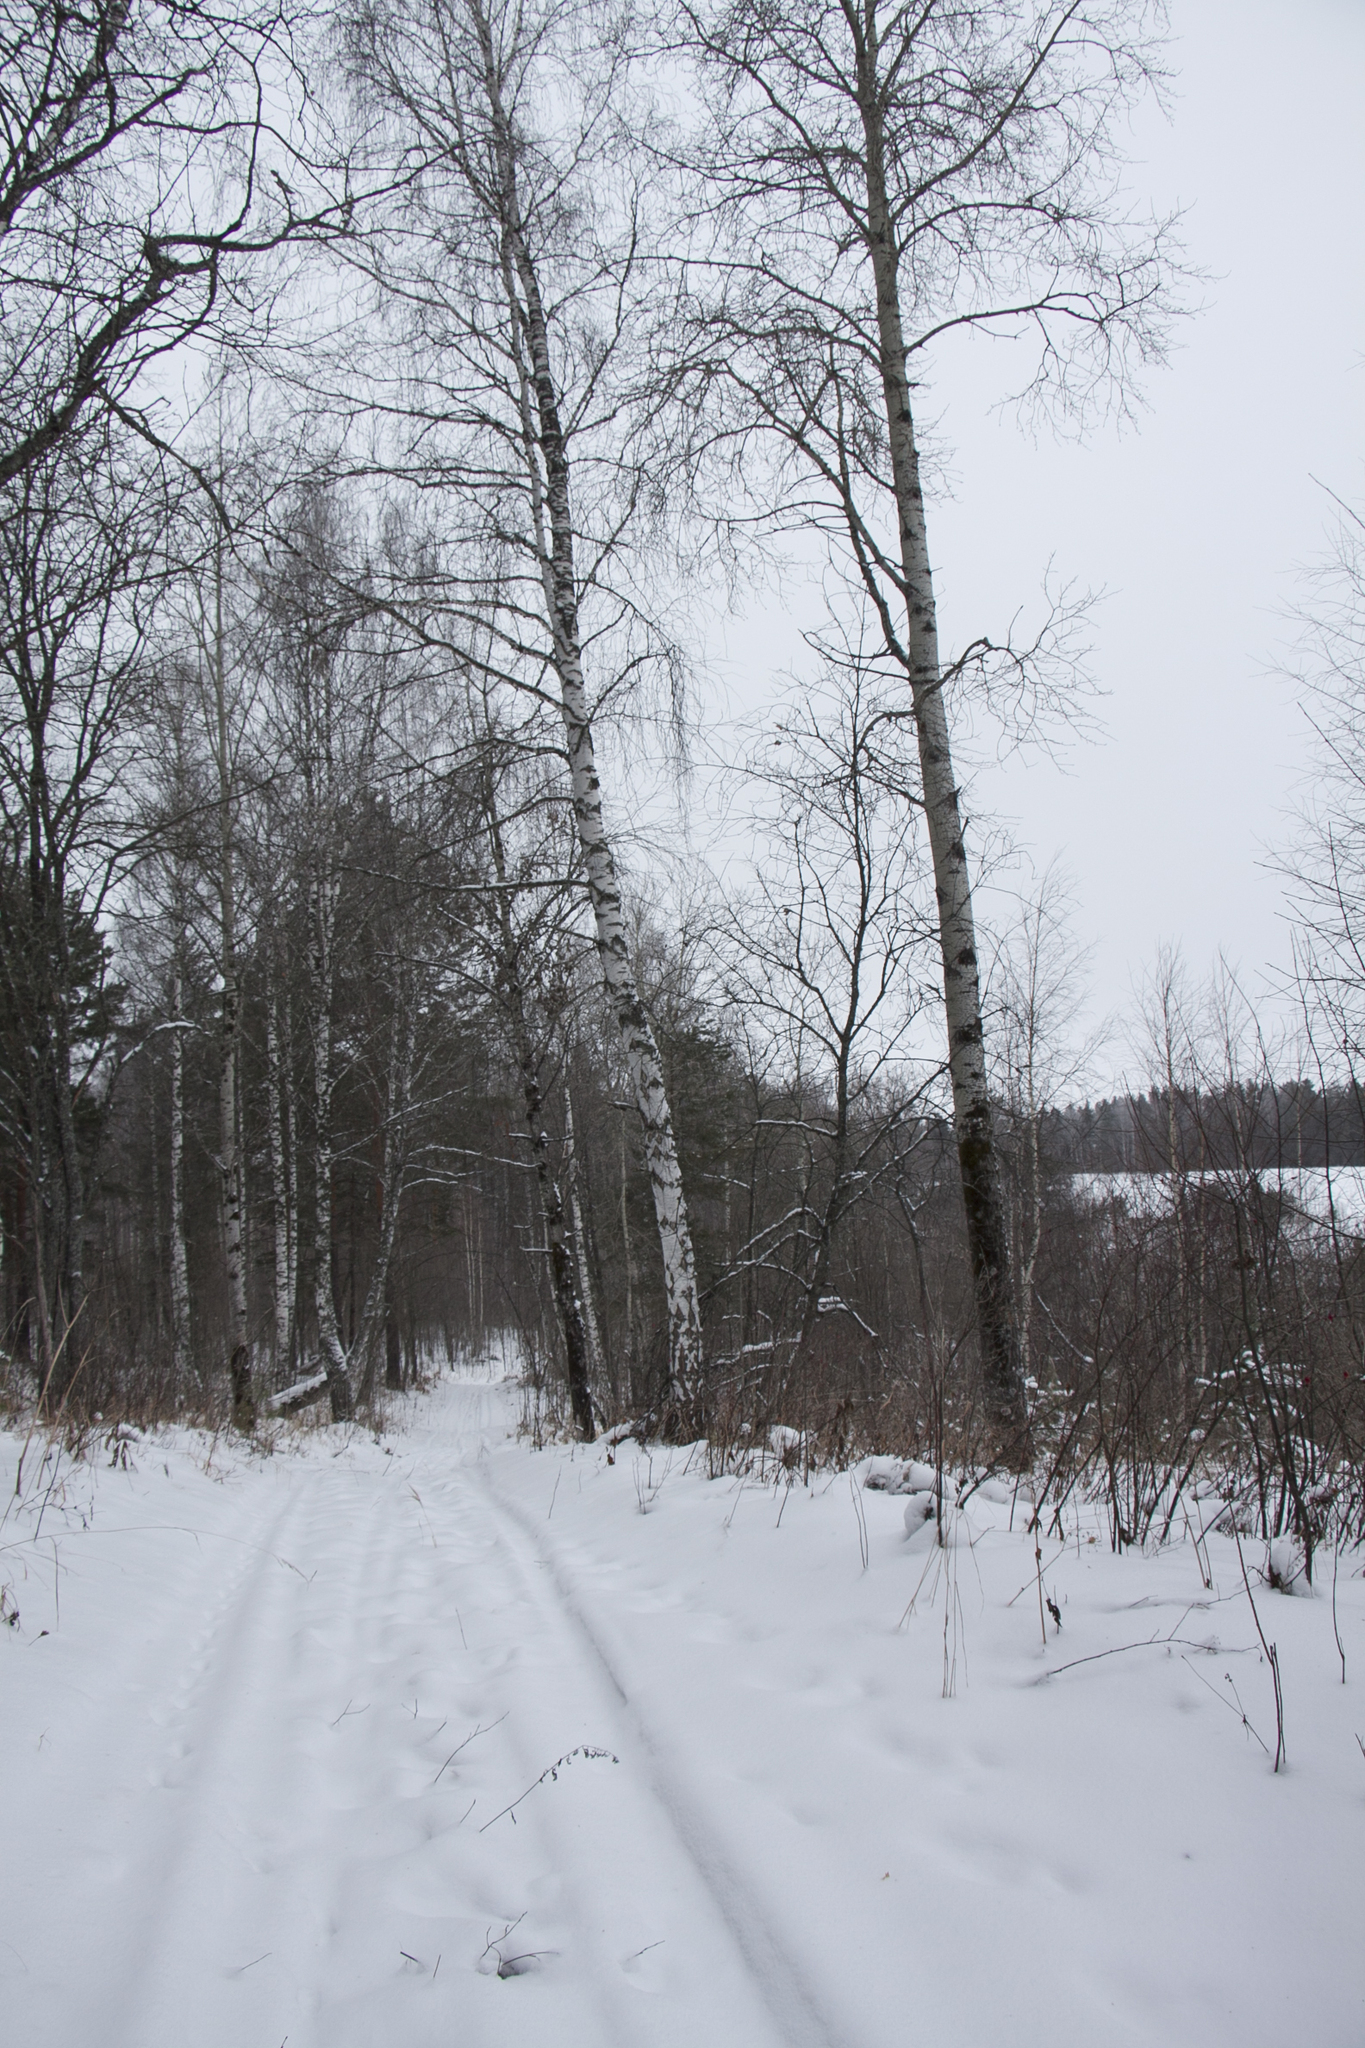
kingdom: Plantae
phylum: Tracheophyta
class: Magnoliopsida
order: Fagales
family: Betulaceae
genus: Betula
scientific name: Betula pendula
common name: Silver birch
